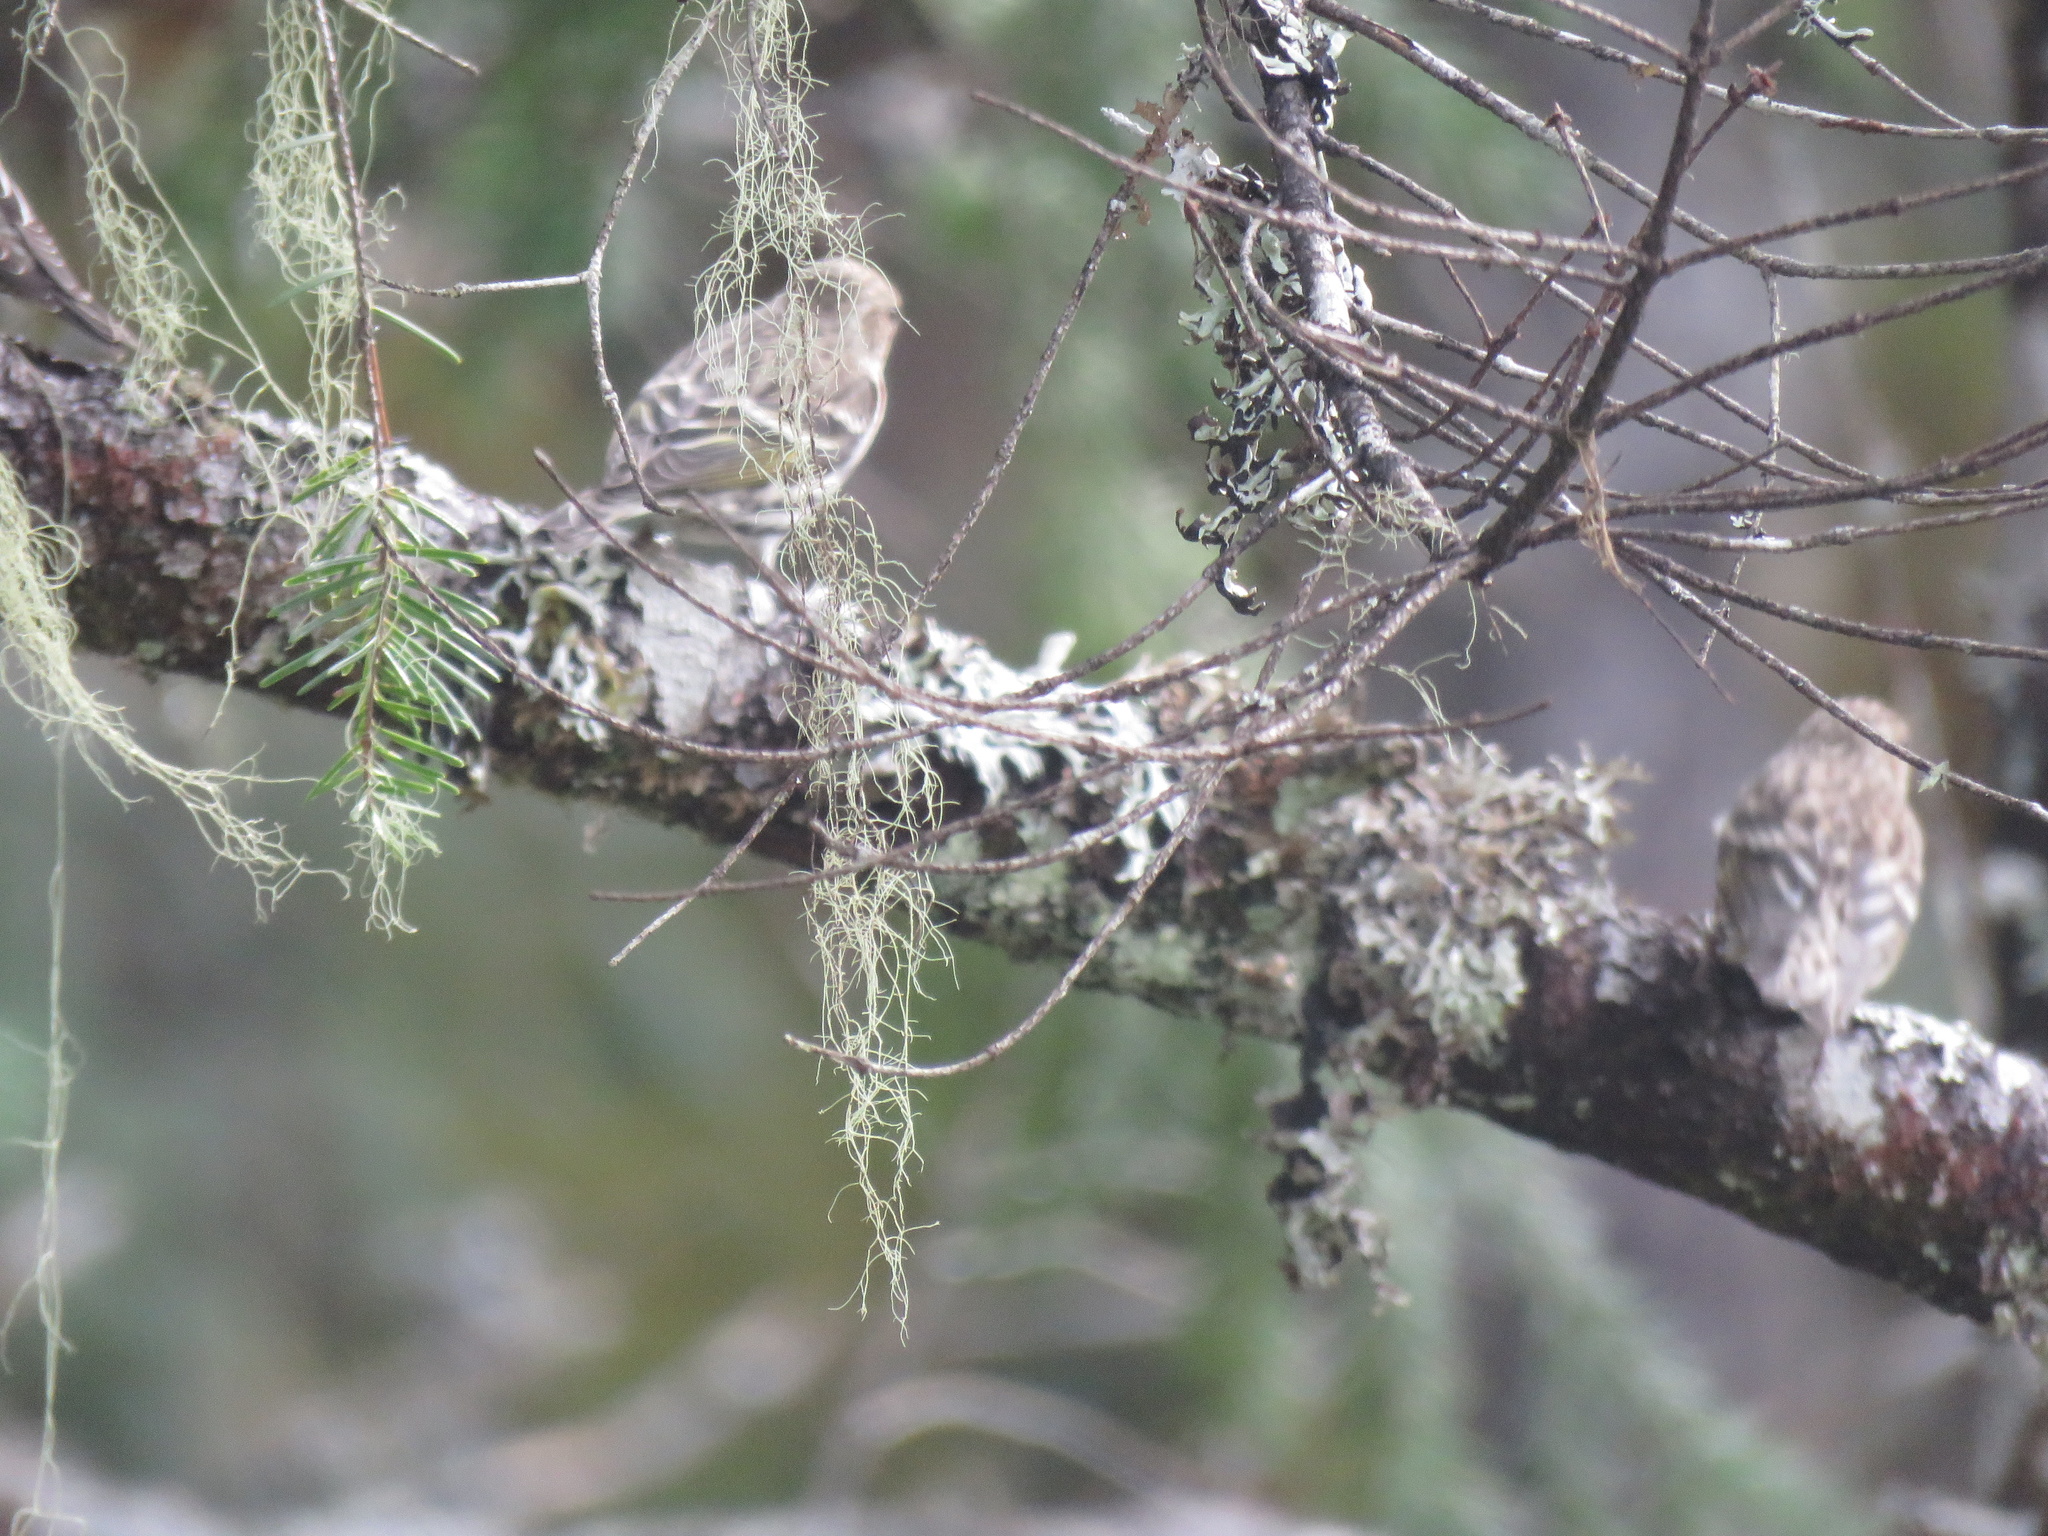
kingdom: Animalia
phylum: Chordata
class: Aves
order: Passeriformes
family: Fringillidae
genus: Spinus
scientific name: Spinus pinus
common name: Pine siskin
